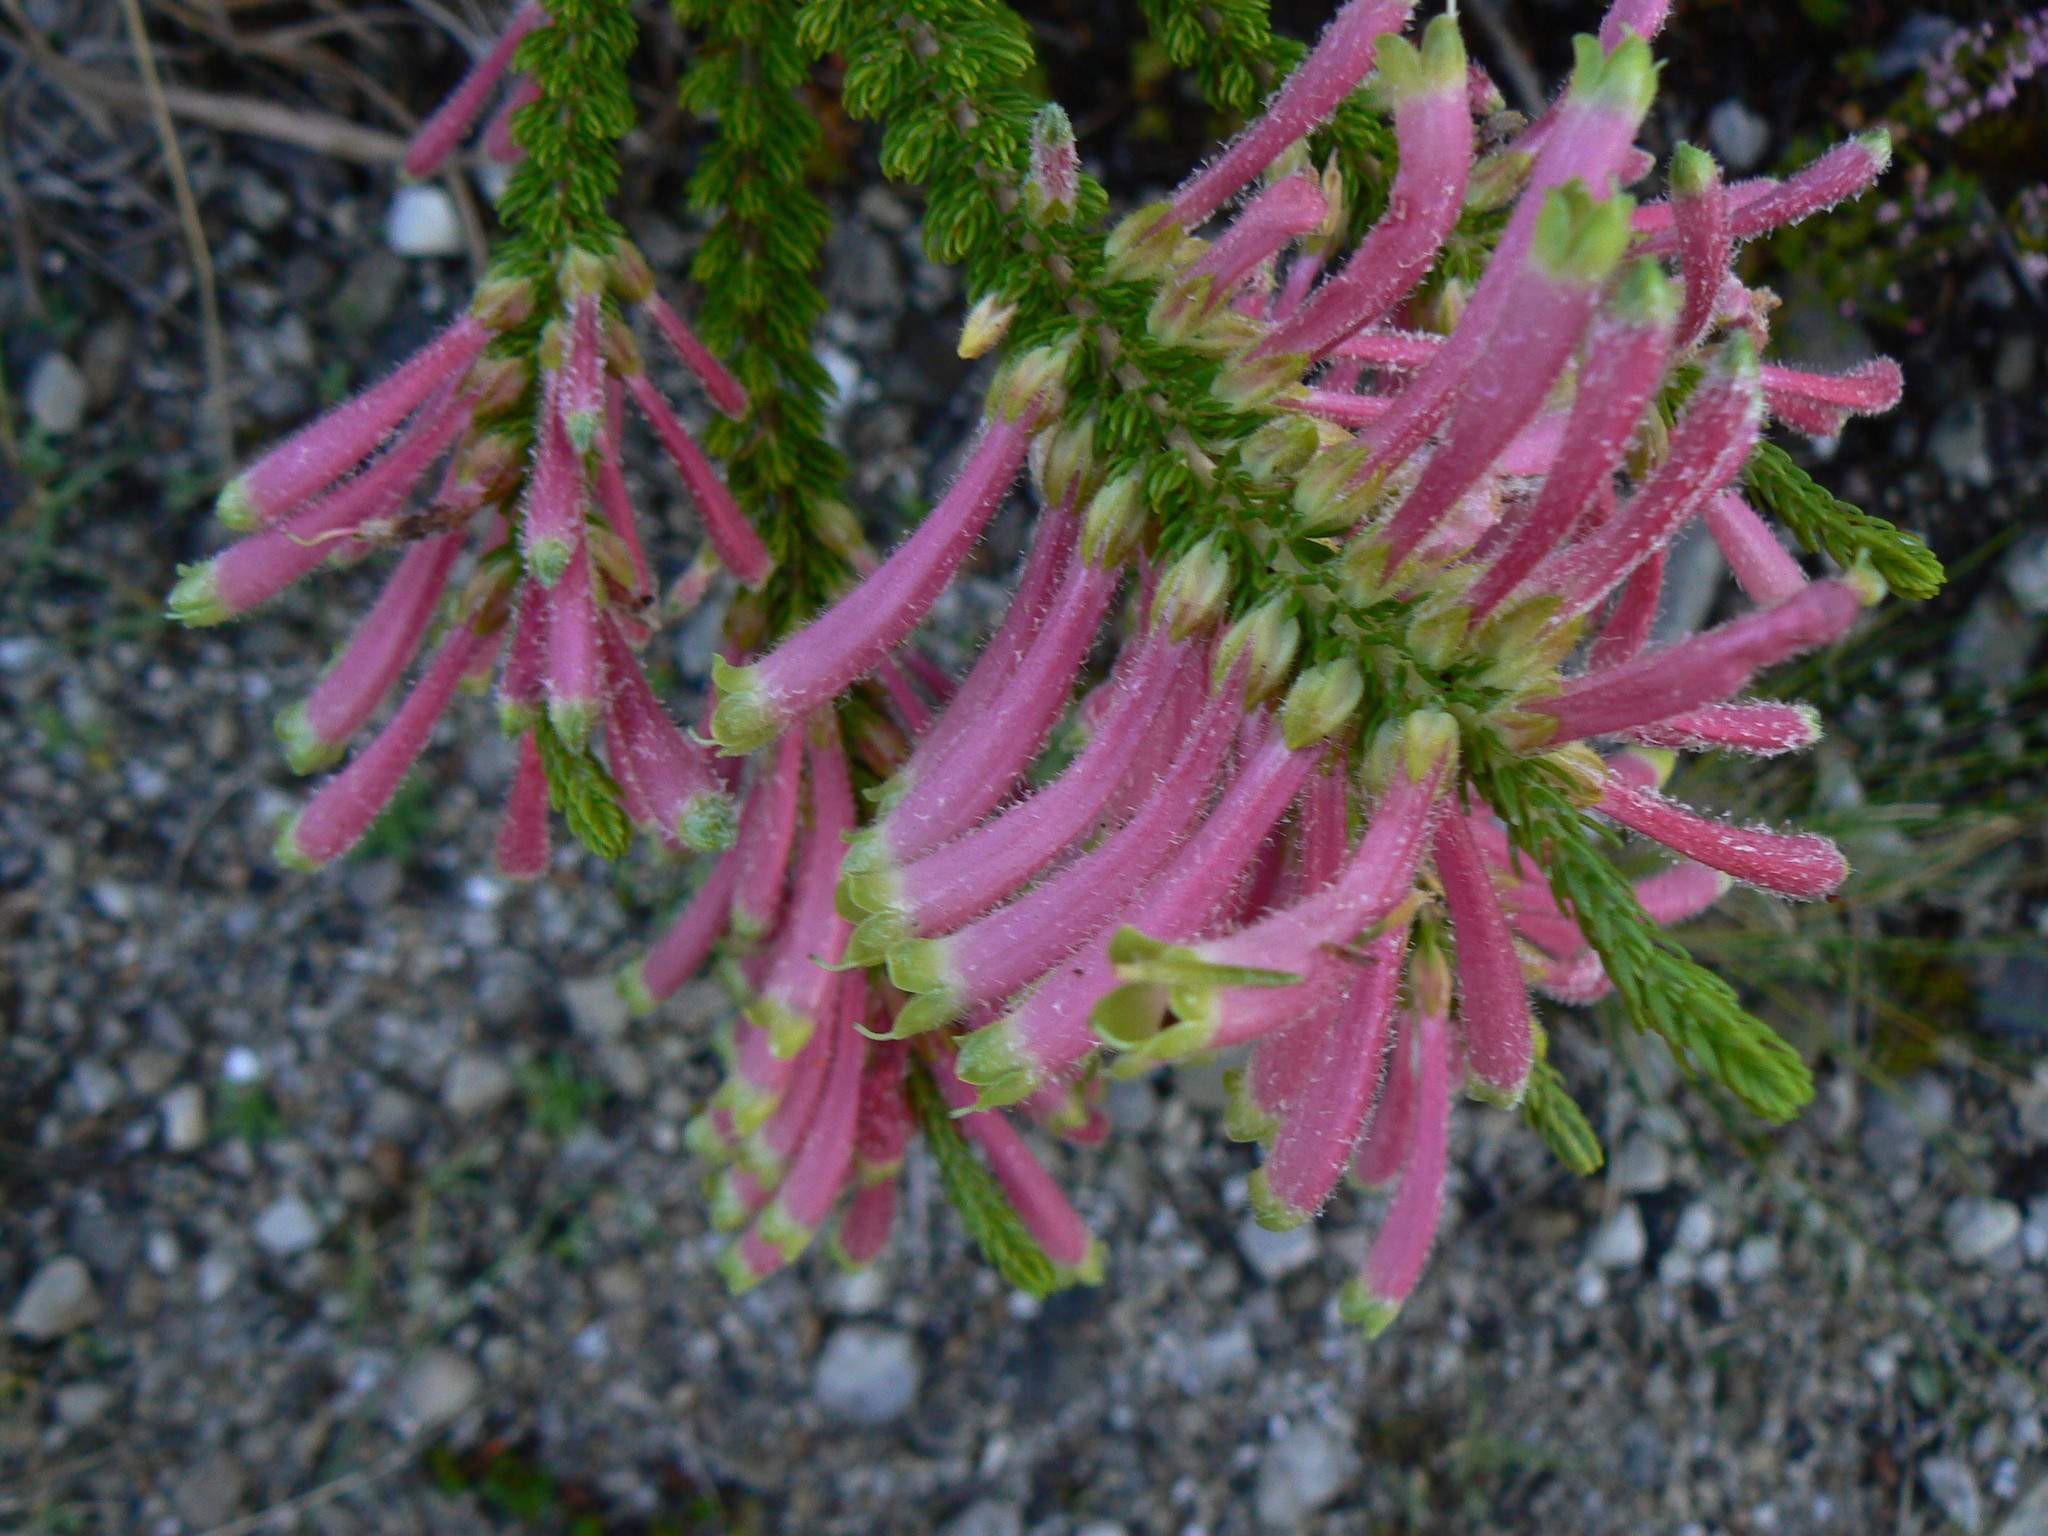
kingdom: Plantae
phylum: Tracheophyta
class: Magnoliopsida
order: Ericales
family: Ericaceae
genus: Erica
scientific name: Erica densifolia
